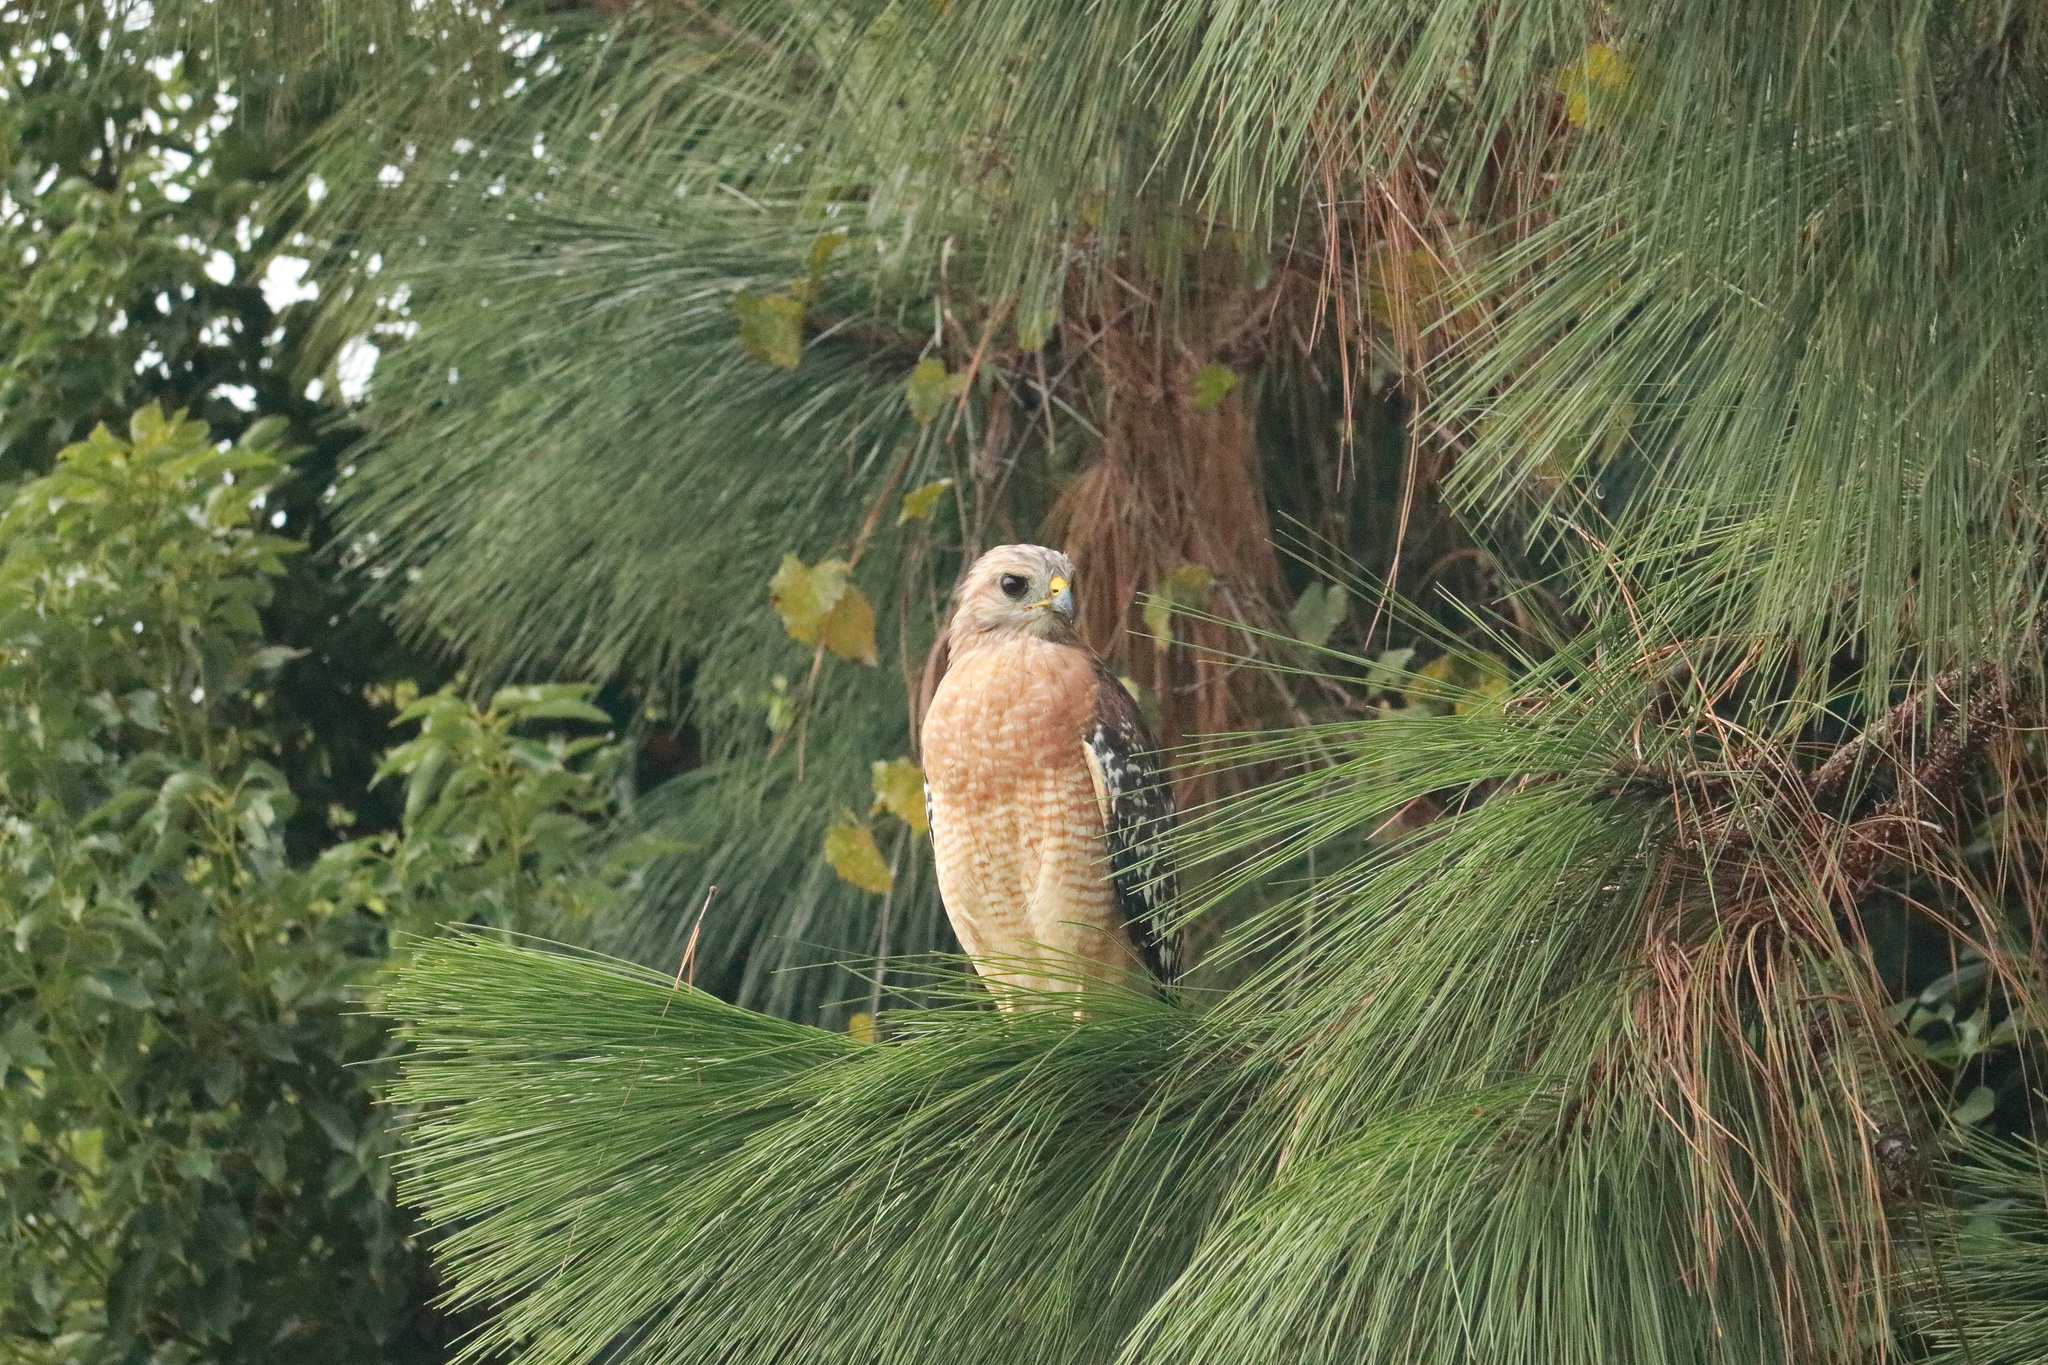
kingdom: Animalia
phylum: Chordata
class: Aves
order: Accipitriformes
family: Accipitridae
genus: Buteo
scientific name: Buteo lineatus
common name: Red-shouldered hawk
